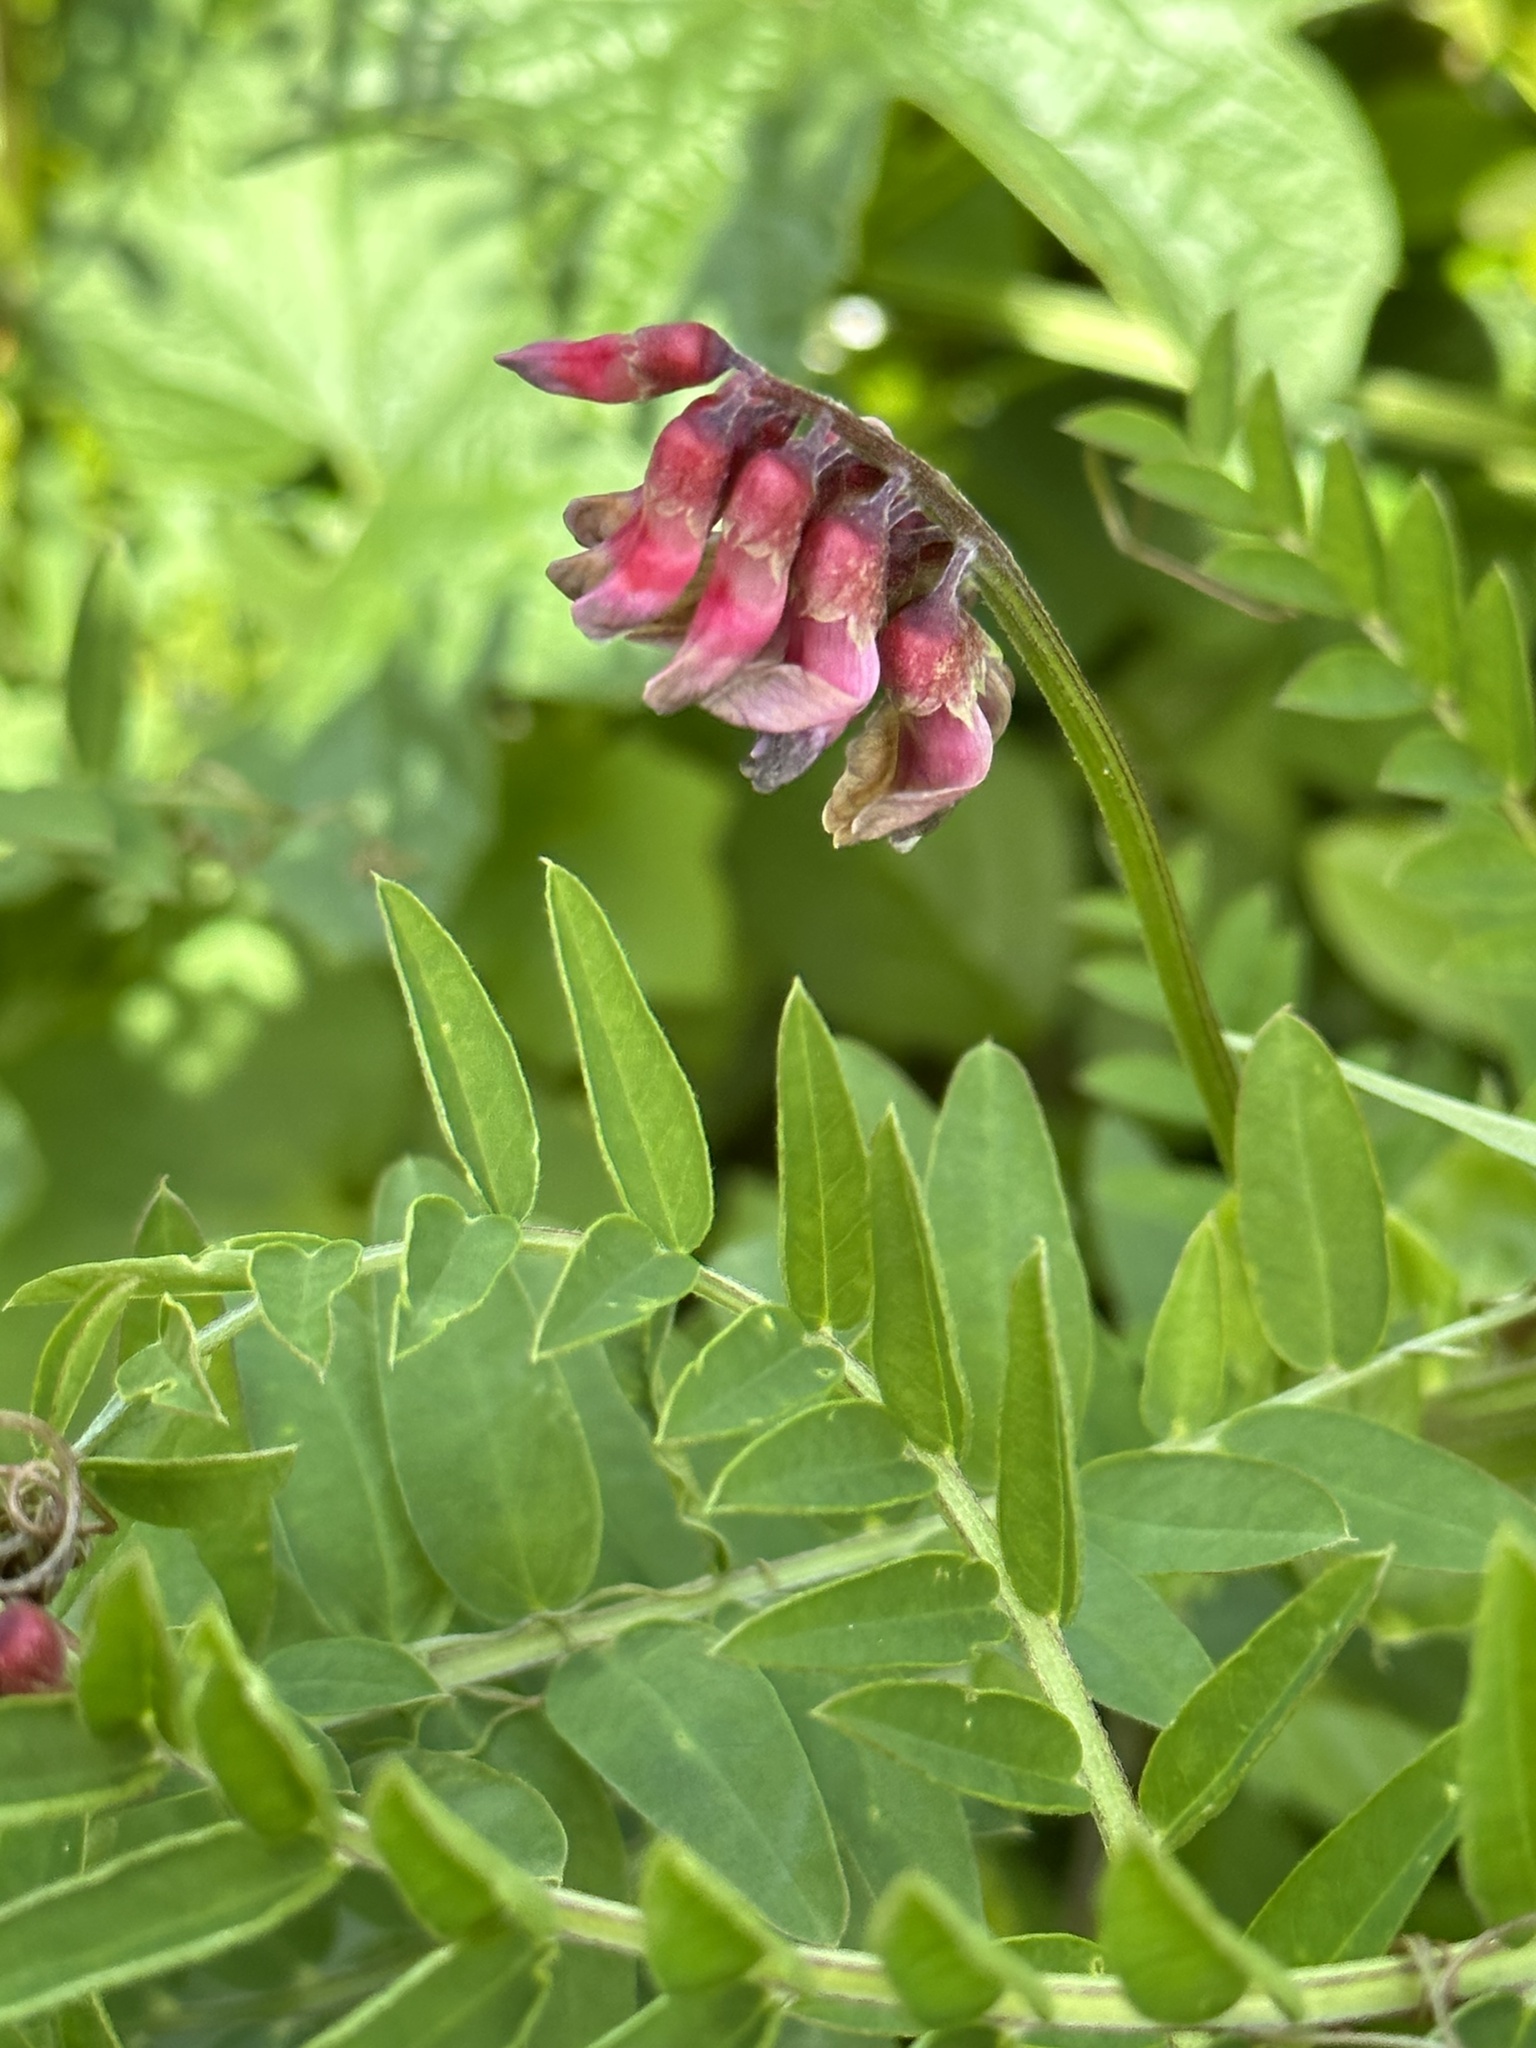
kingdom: Plantae
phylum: Tracheophyta
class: Magnoliopsida
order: Fabales
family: Fabaceae
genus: Vicia
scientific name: Vicia
